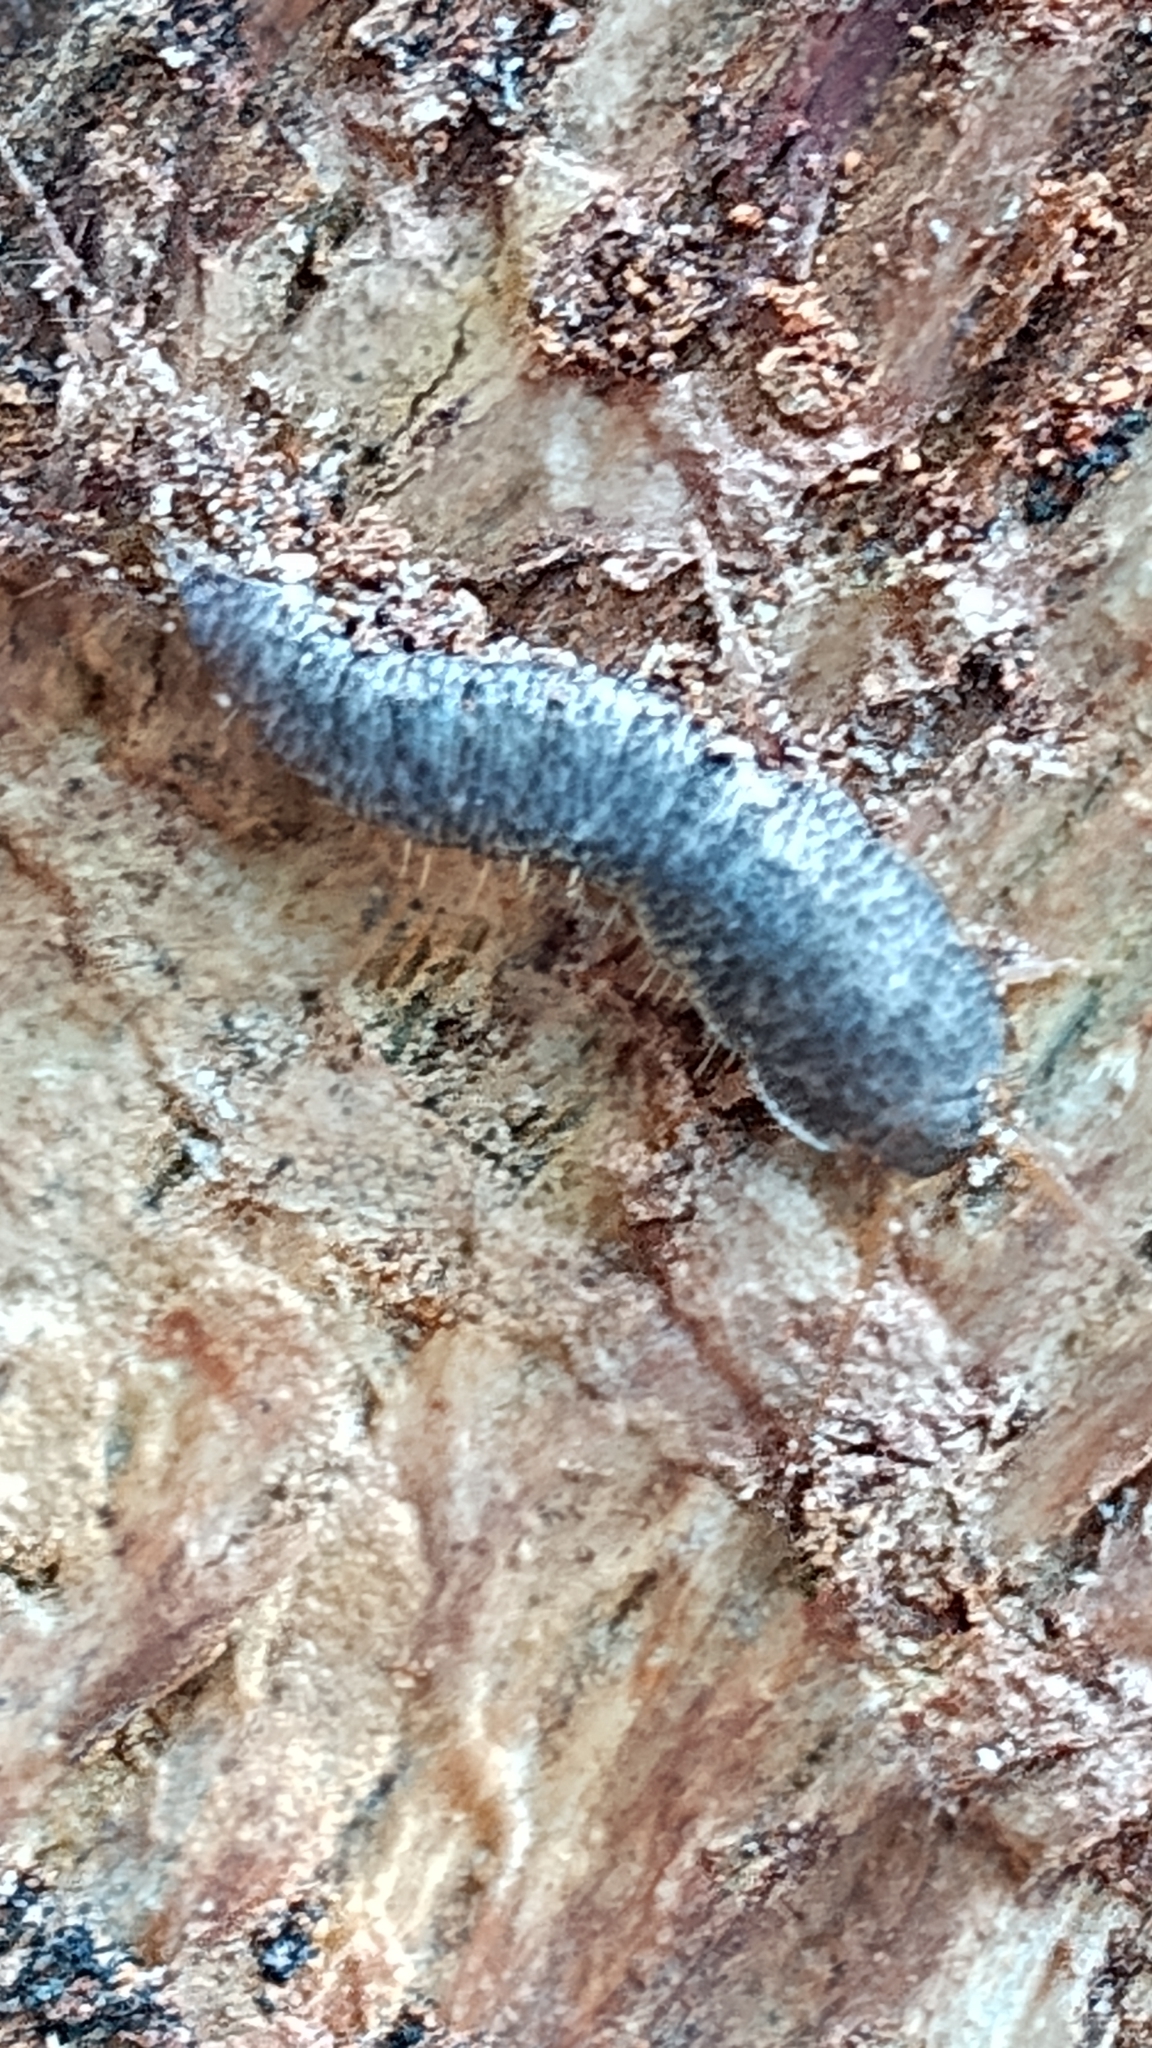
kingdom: Animalia
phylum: Arthropoda
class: Insecta
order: Zygentoma
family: Lepismatidae
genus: Allacrotelsa
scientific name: Allacrotelsa spinulata
